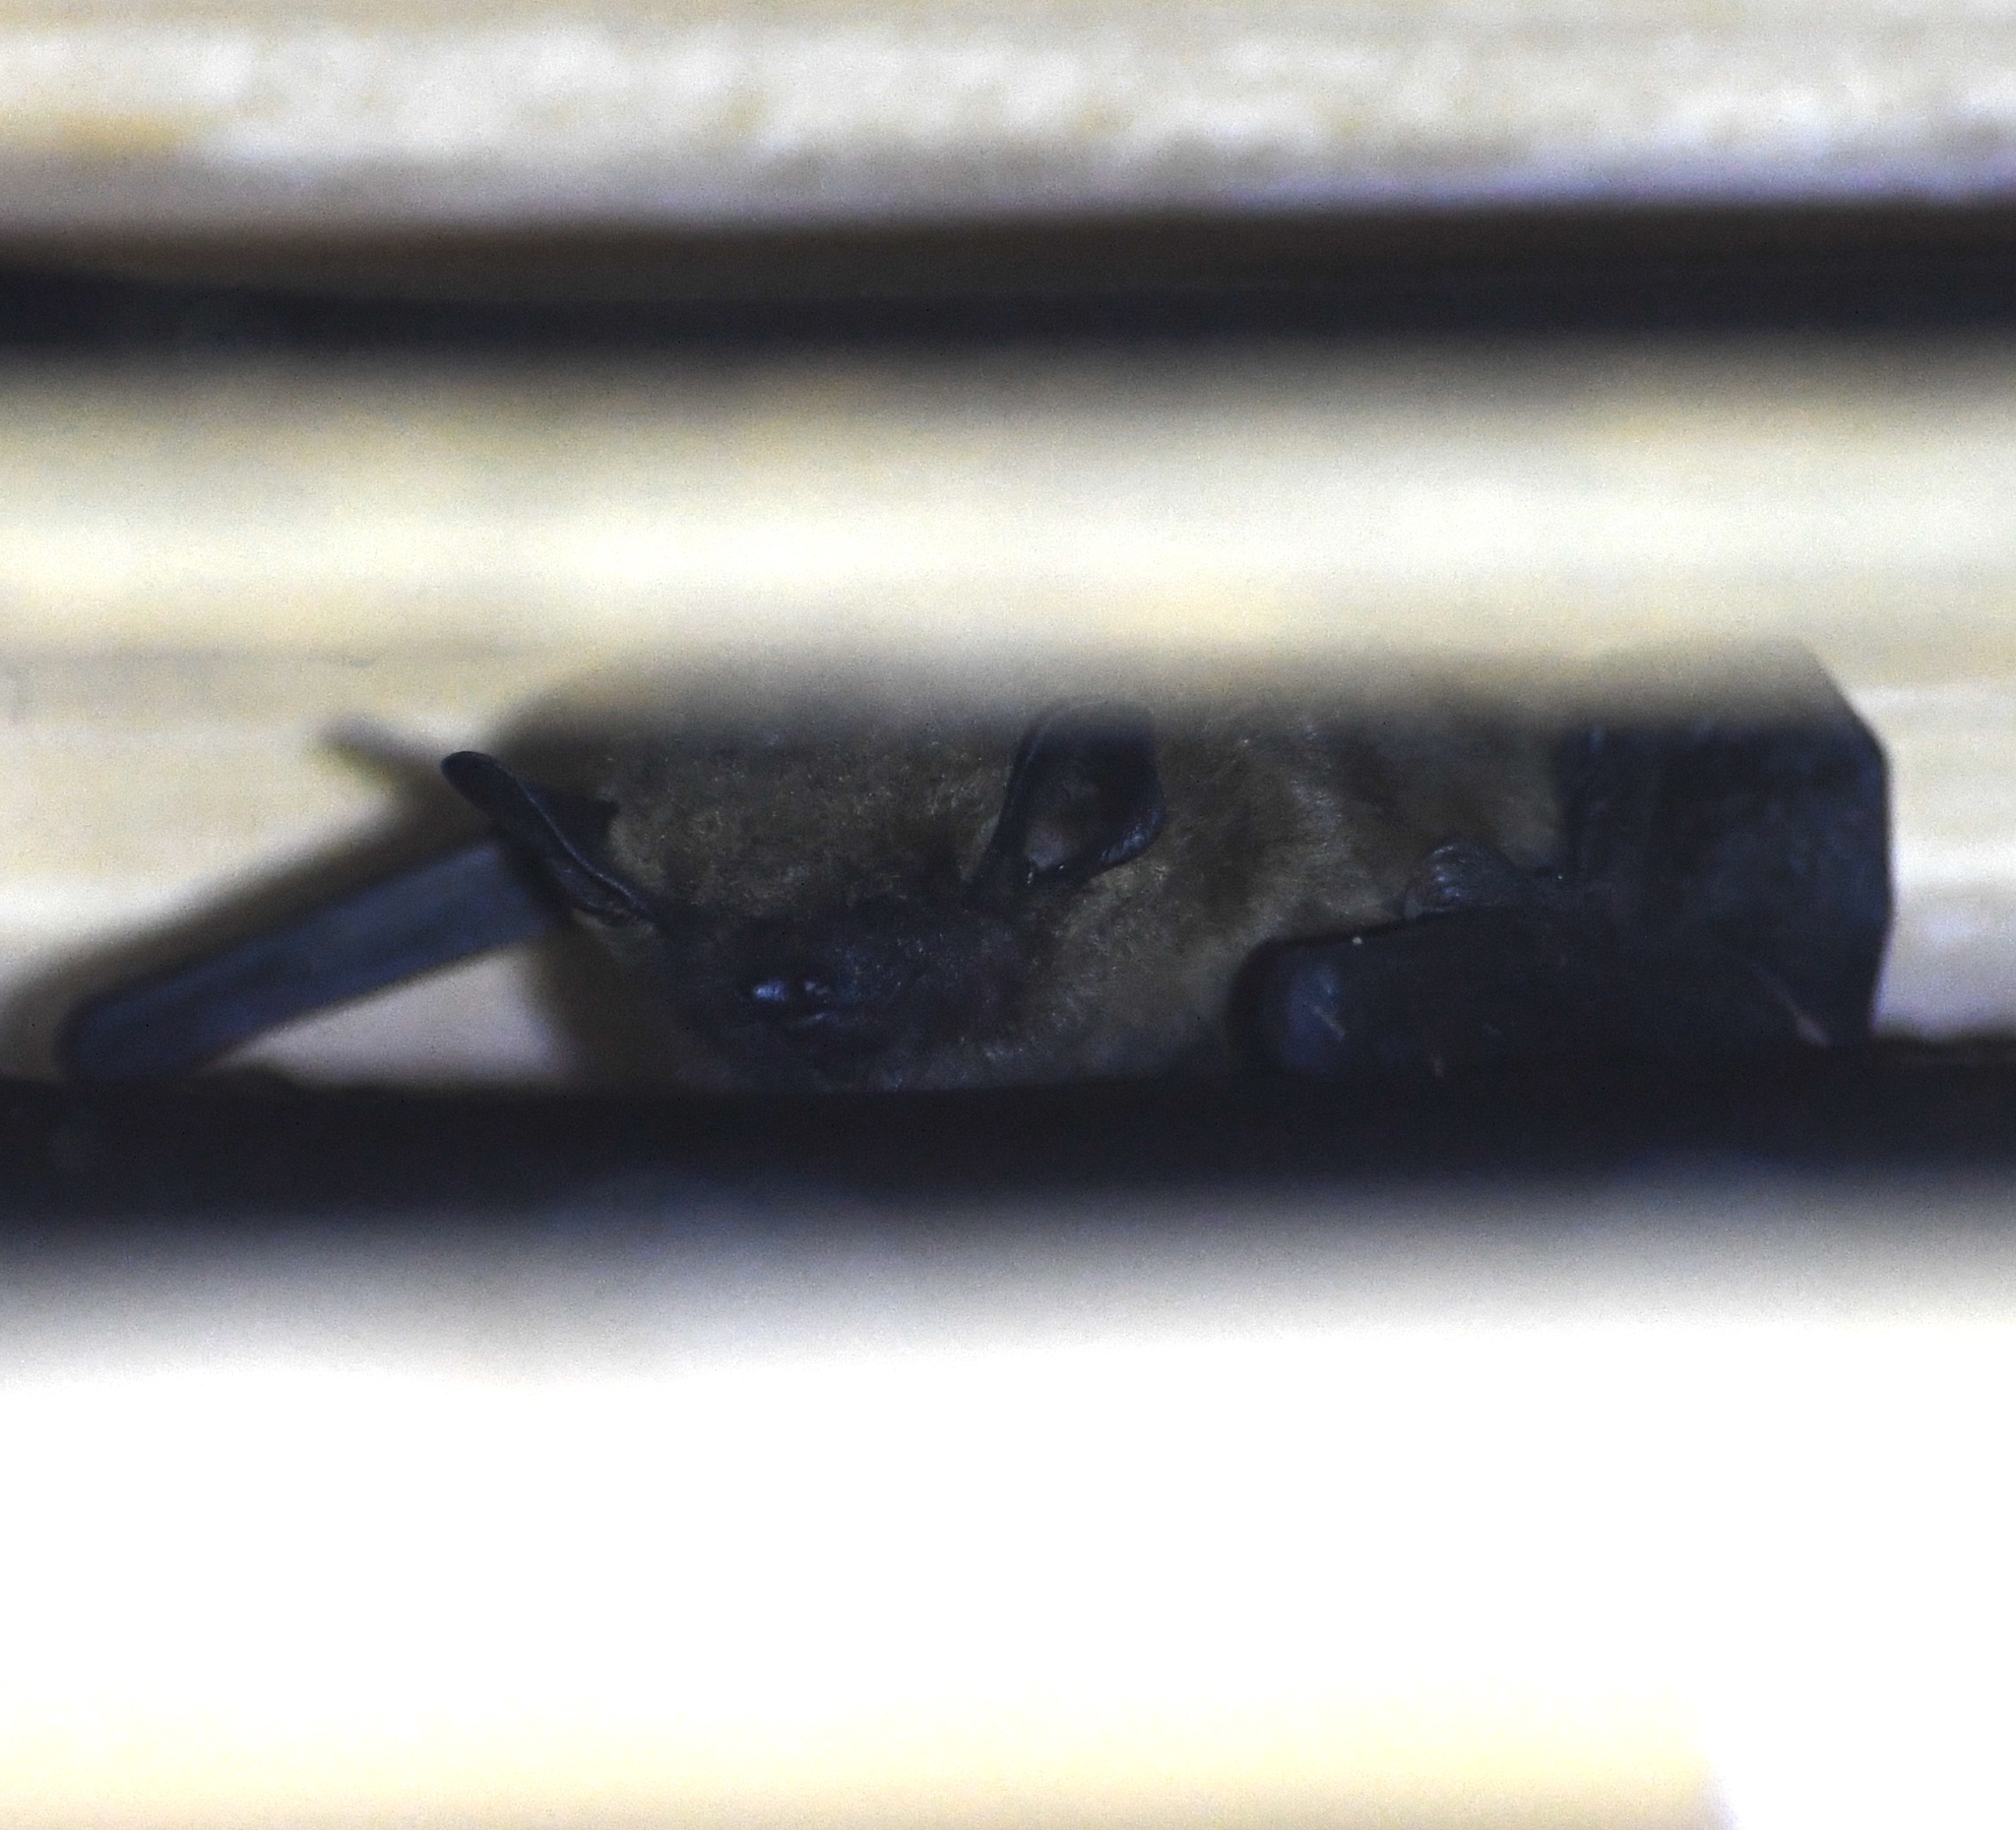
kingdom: Animalia
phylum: Chordata
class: Mammalia
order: Chiroptera
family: Vespertilionidae
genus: Eptesicus
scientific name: Eptesicus fuscus
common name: Big brown bat
